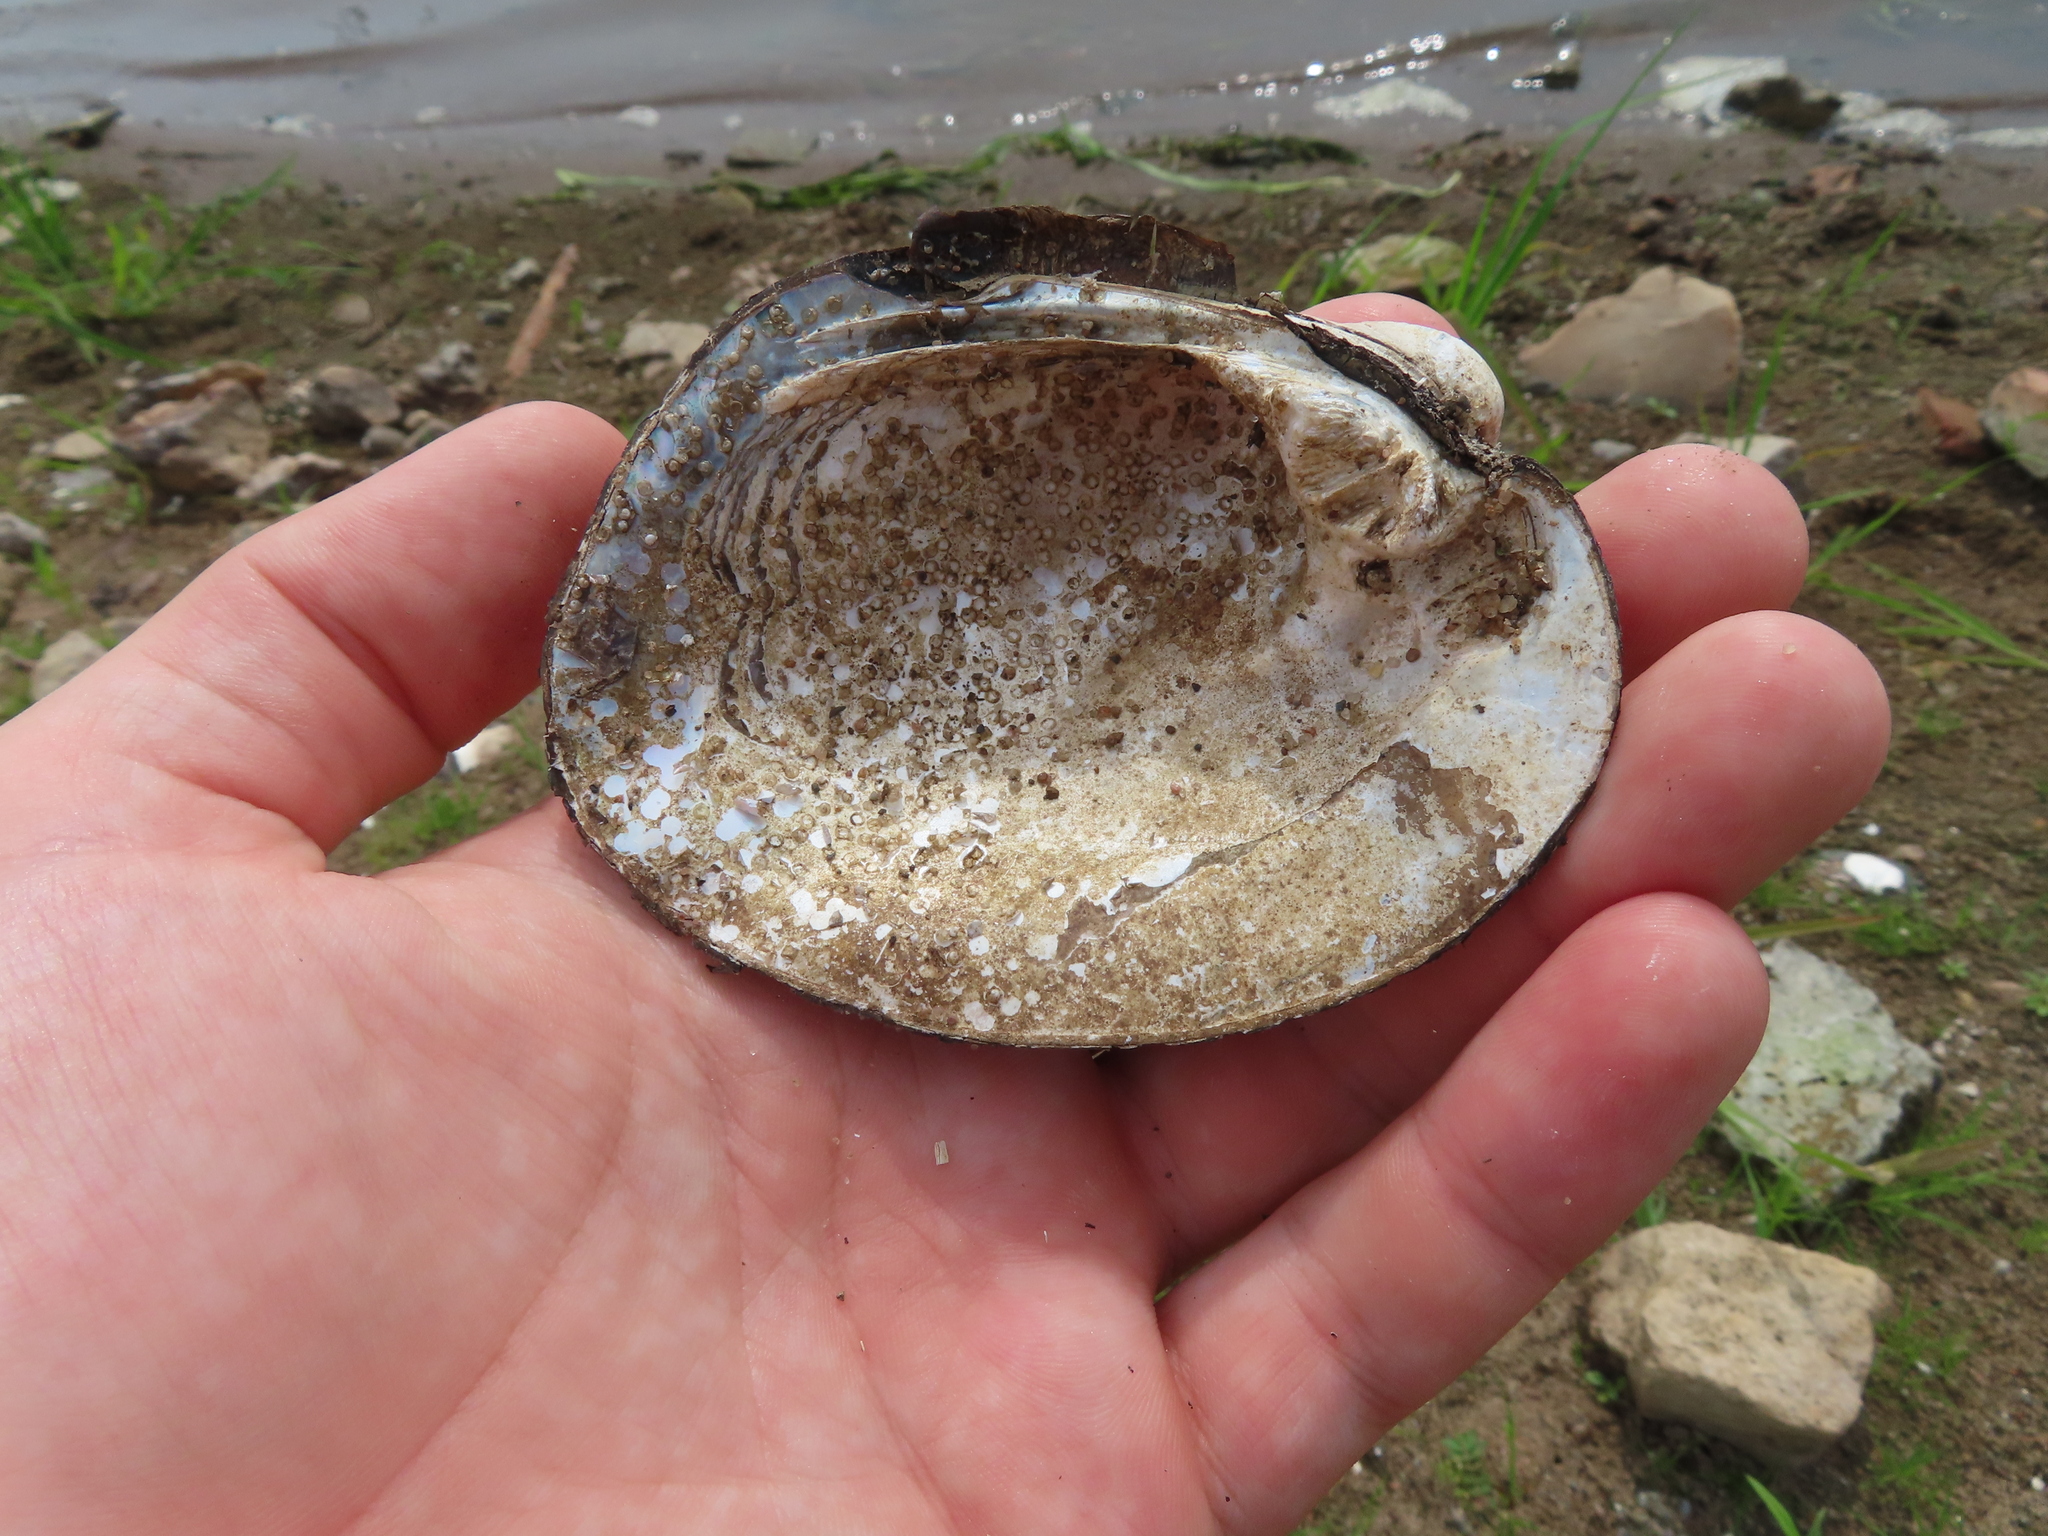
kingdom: Animalia
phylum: Mollusca
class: Bivalvia
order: Unionida
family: Unionidae
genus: Amblema
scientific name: Amblema plicata
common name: Threeridge
